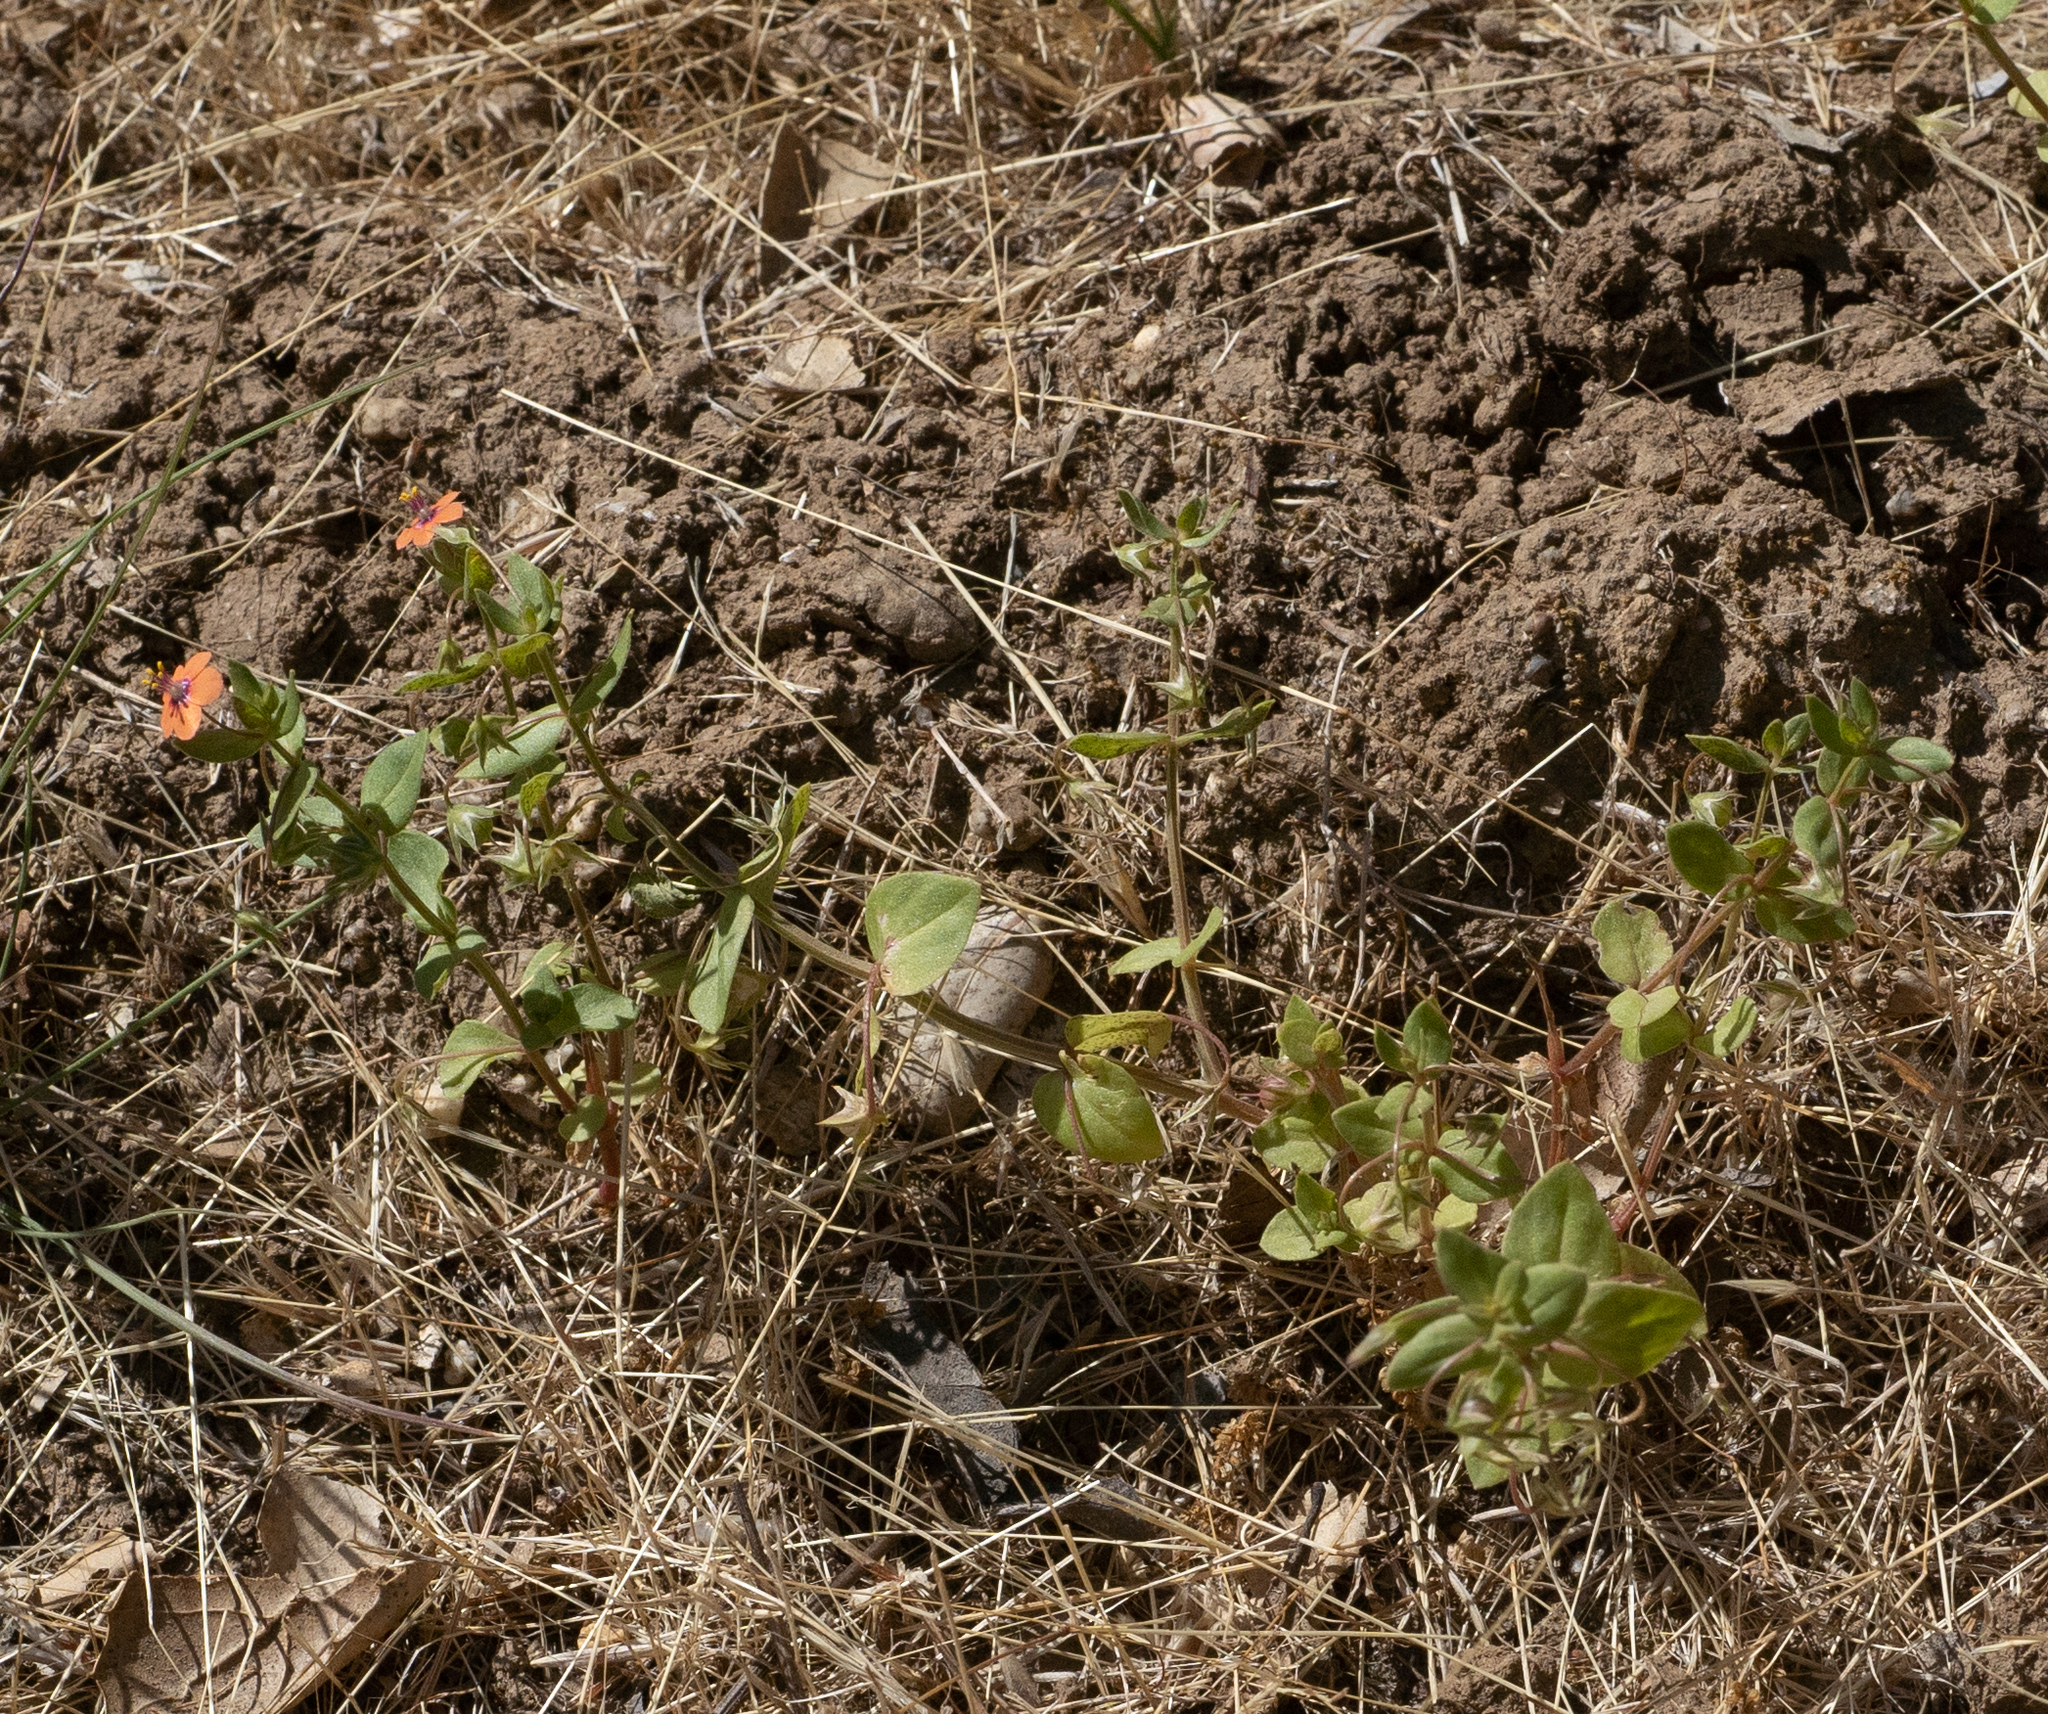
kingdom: Plantae
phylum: Tracheophyta
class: Magnoliopsida
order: Ericales
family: Primulaceae
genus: Lysimachia
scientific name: Lysimachia arvensis
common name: Scarlet pimpernel
